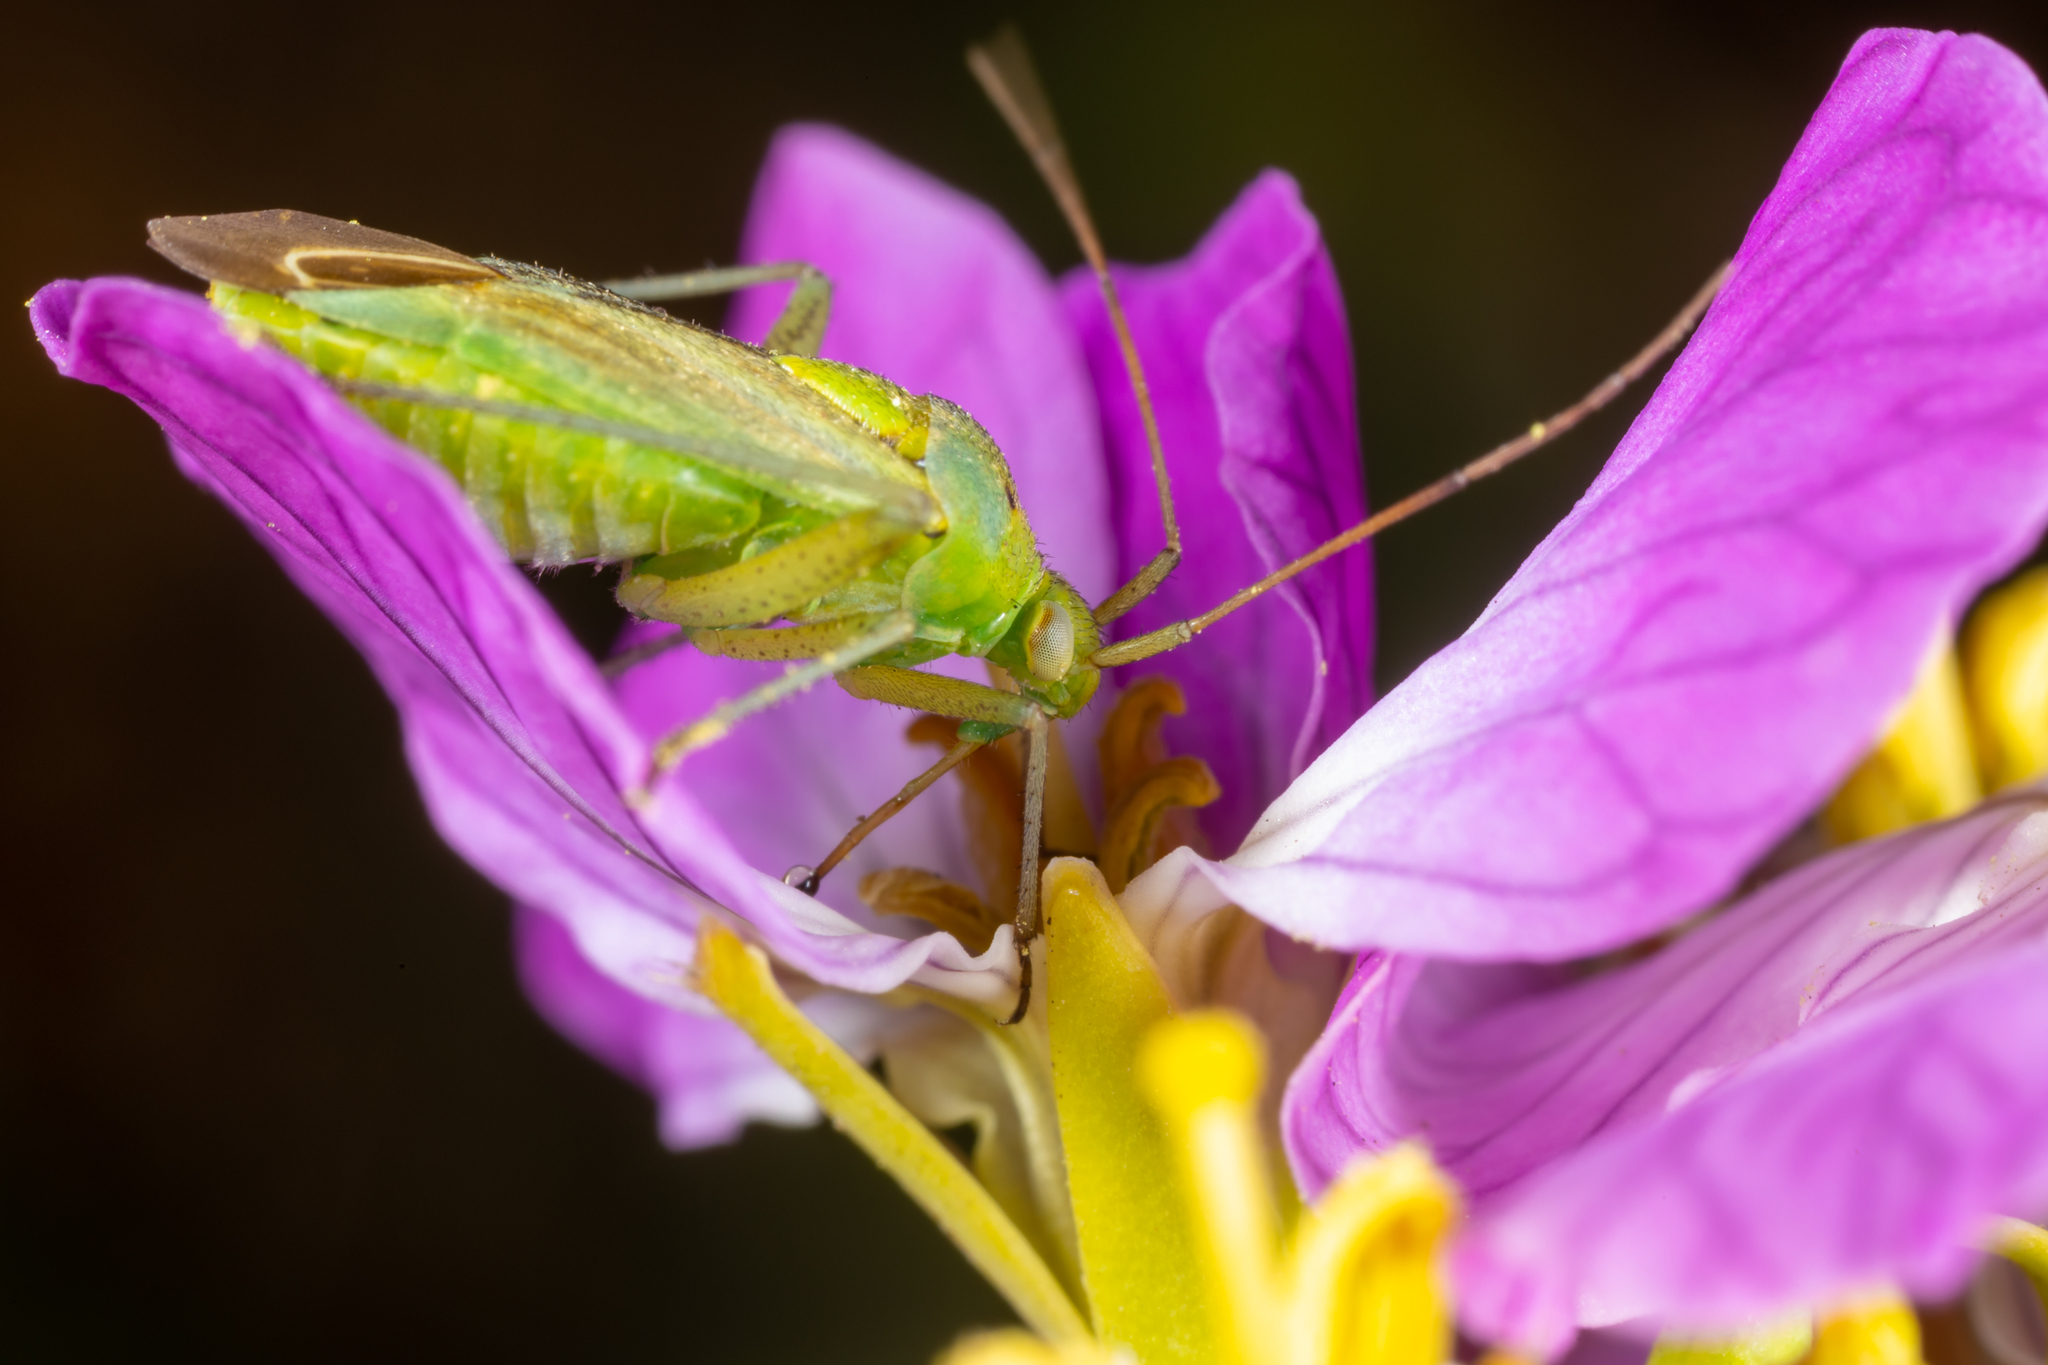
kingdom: Animalia
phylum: Arthropoda
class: Insecta
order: Hemiptera
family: Miridae
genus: Closterotomus
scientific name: Closterotomus norvegicus
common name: Plant bug
